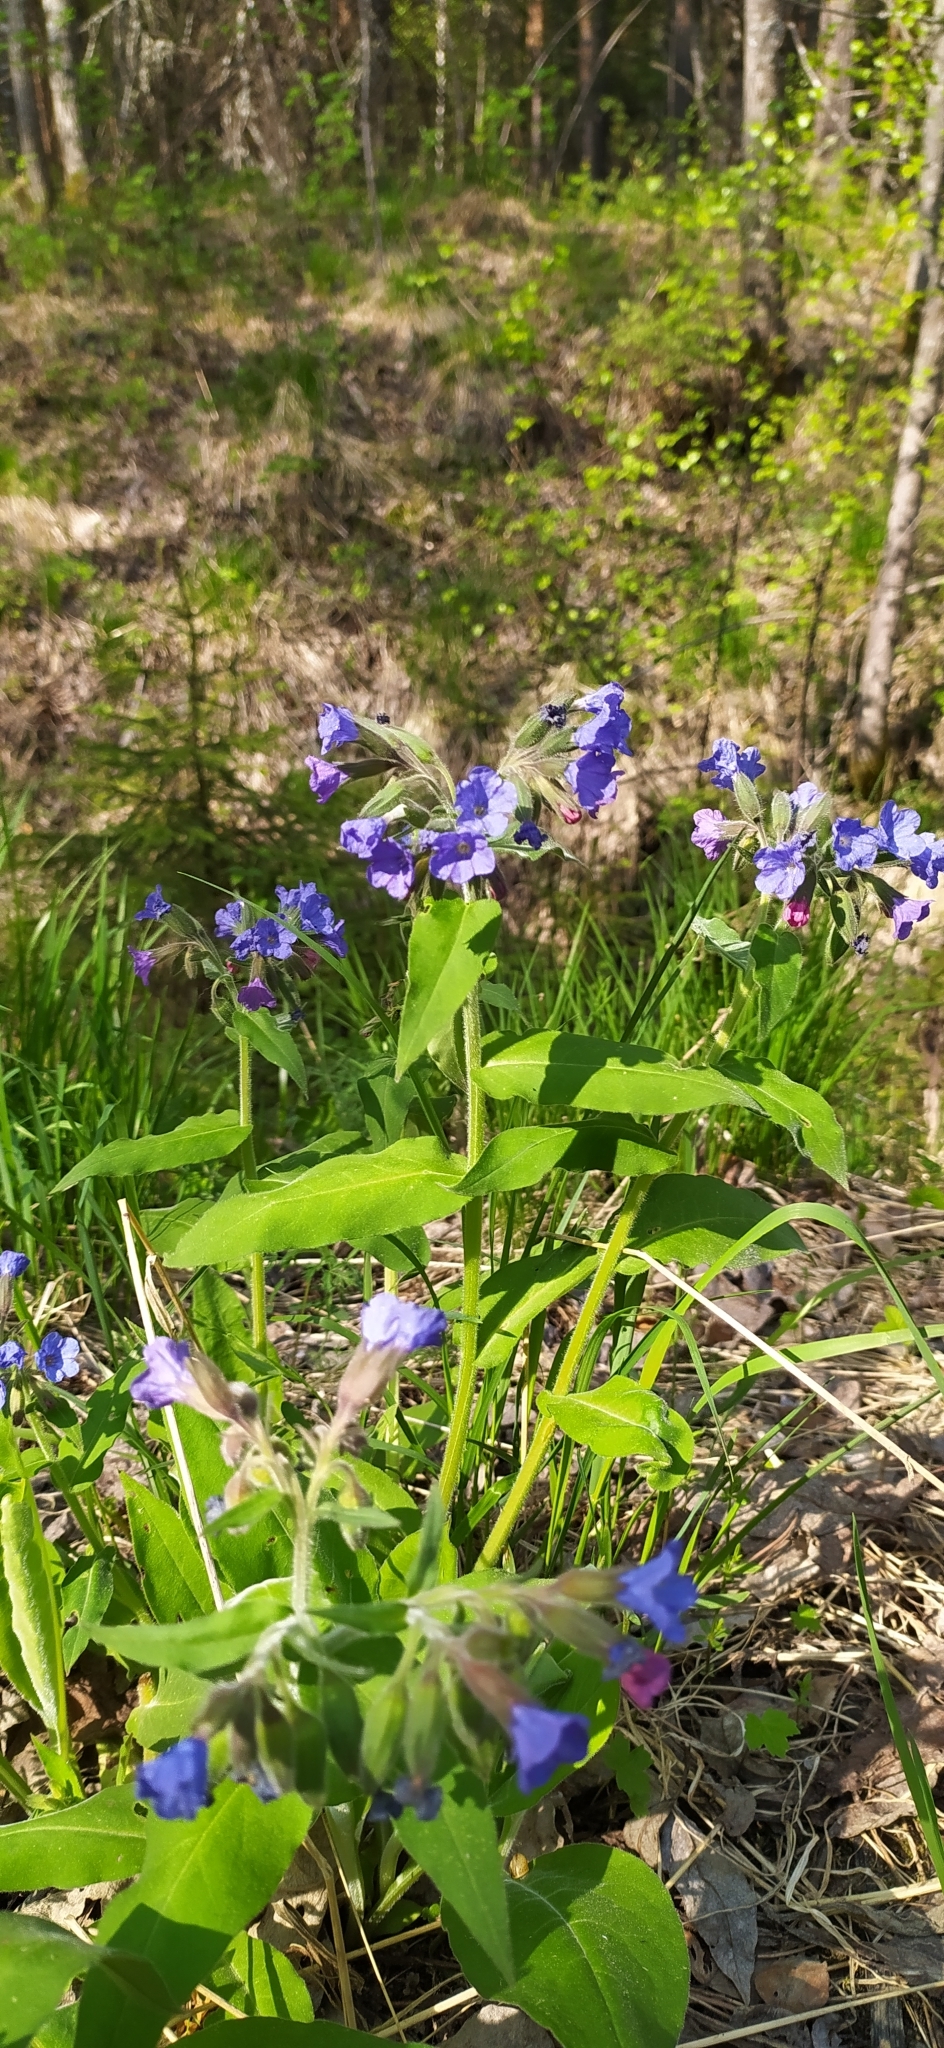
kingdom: Plantae
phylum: Tracheophyta
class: Magnoliopsida
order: Boraginales
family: Boraginaceae
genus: Pulmonaria
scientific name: Pulmonaria mollis
